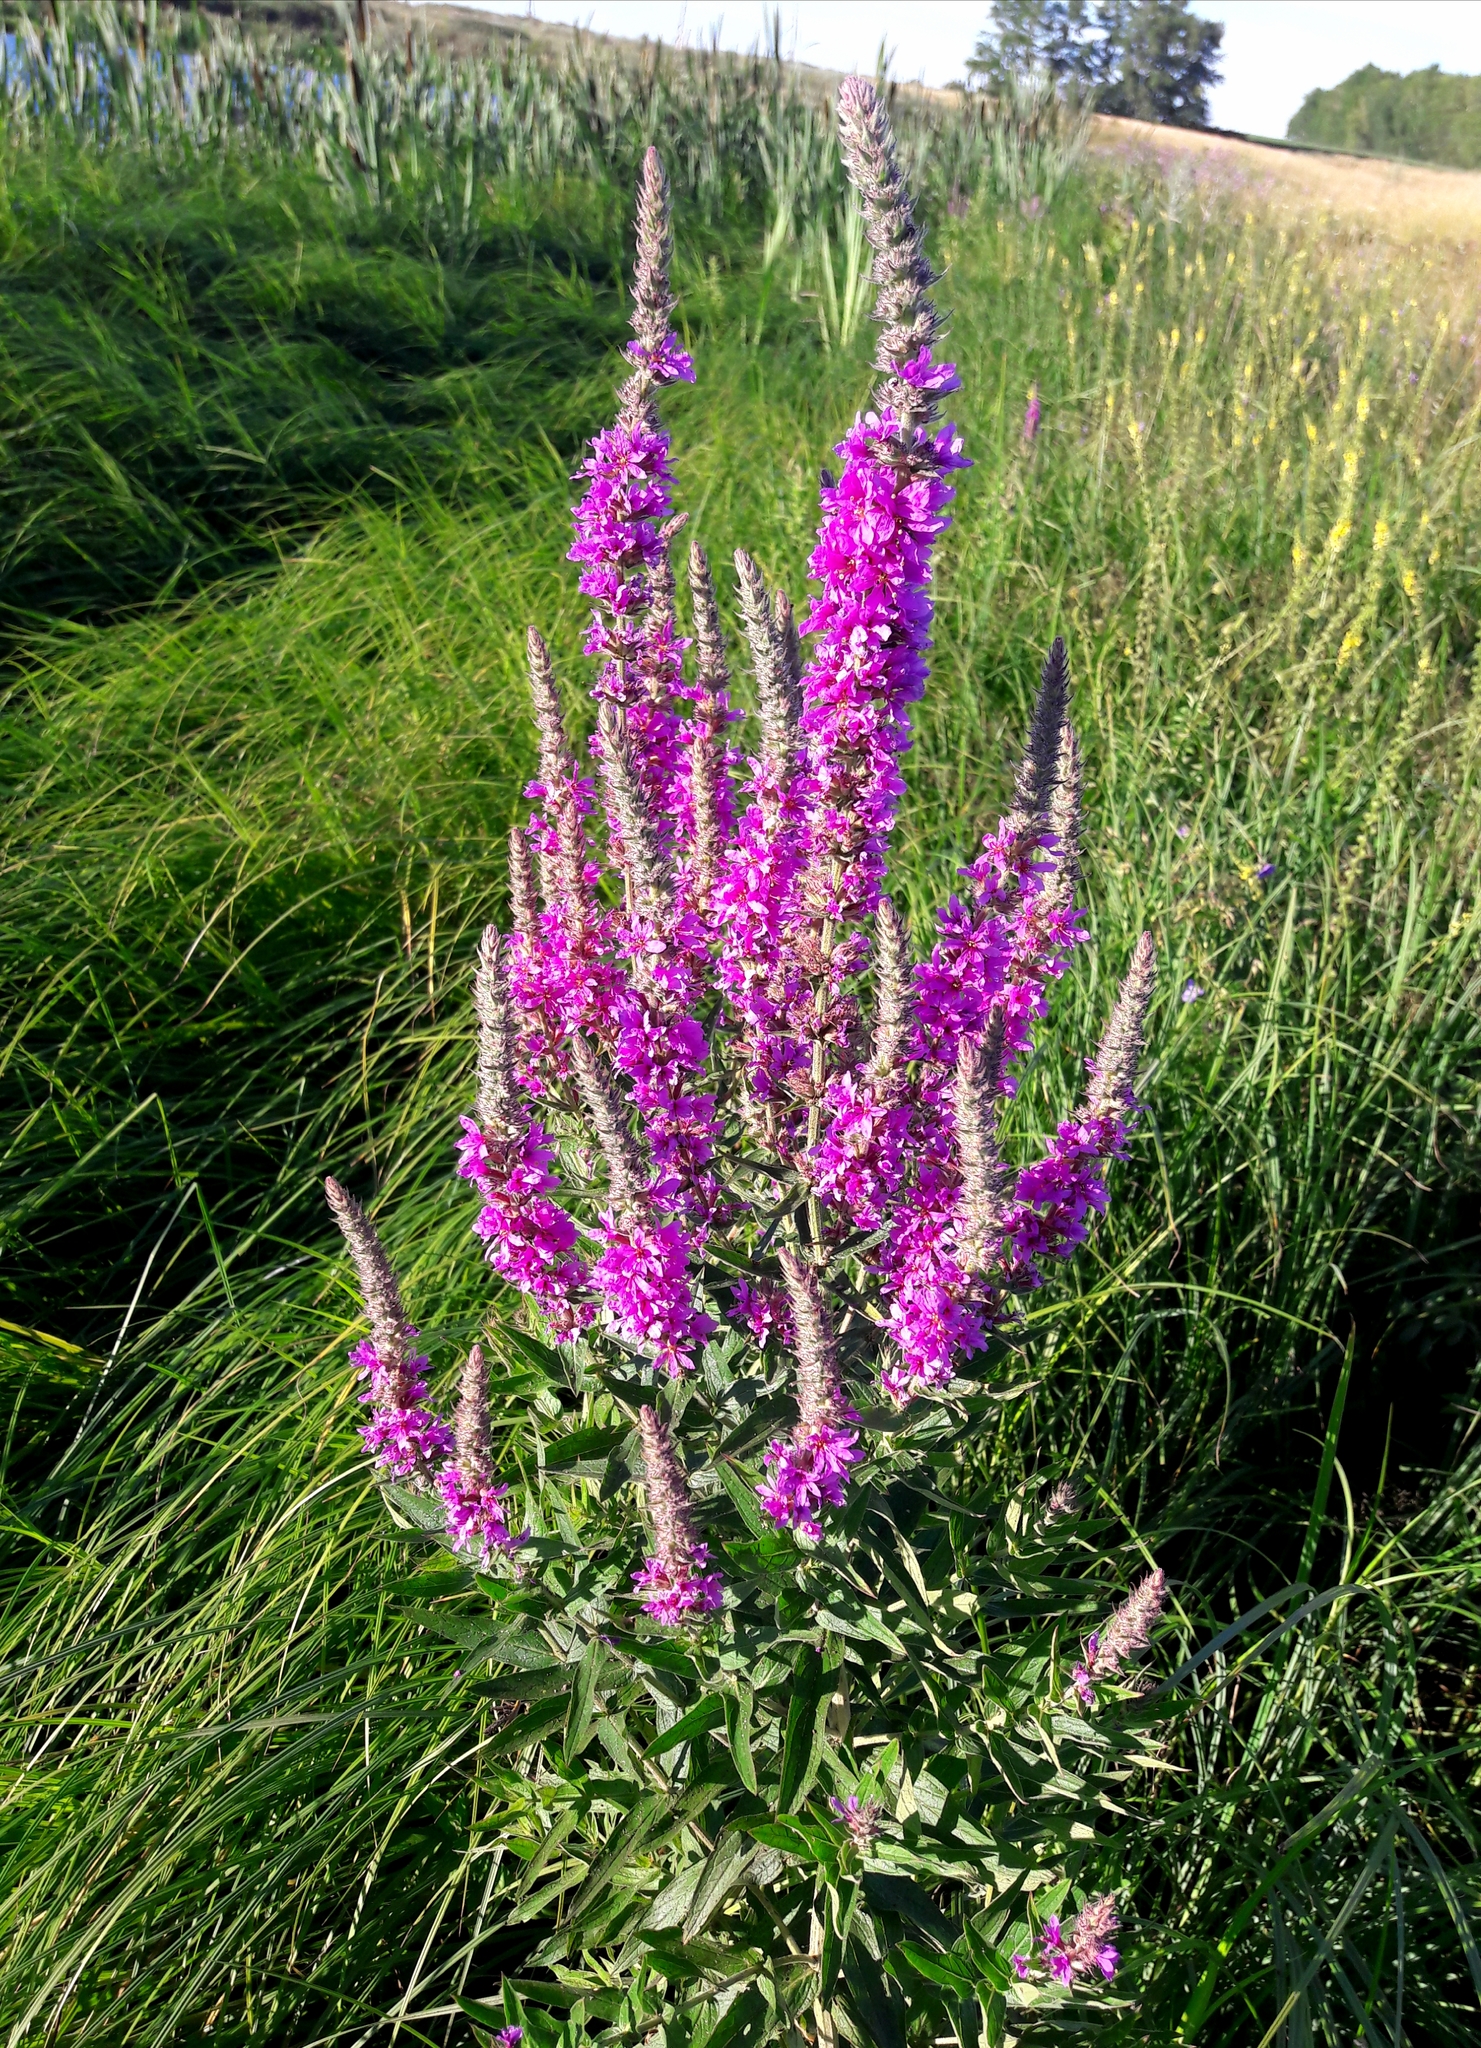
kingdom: Plantae
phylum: Tracheophyta
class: Magnoliopsida
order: Myrtales
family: Lythraceae
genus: Lythrum
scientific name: Lythrum salicaria
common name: Purple loosestrife
